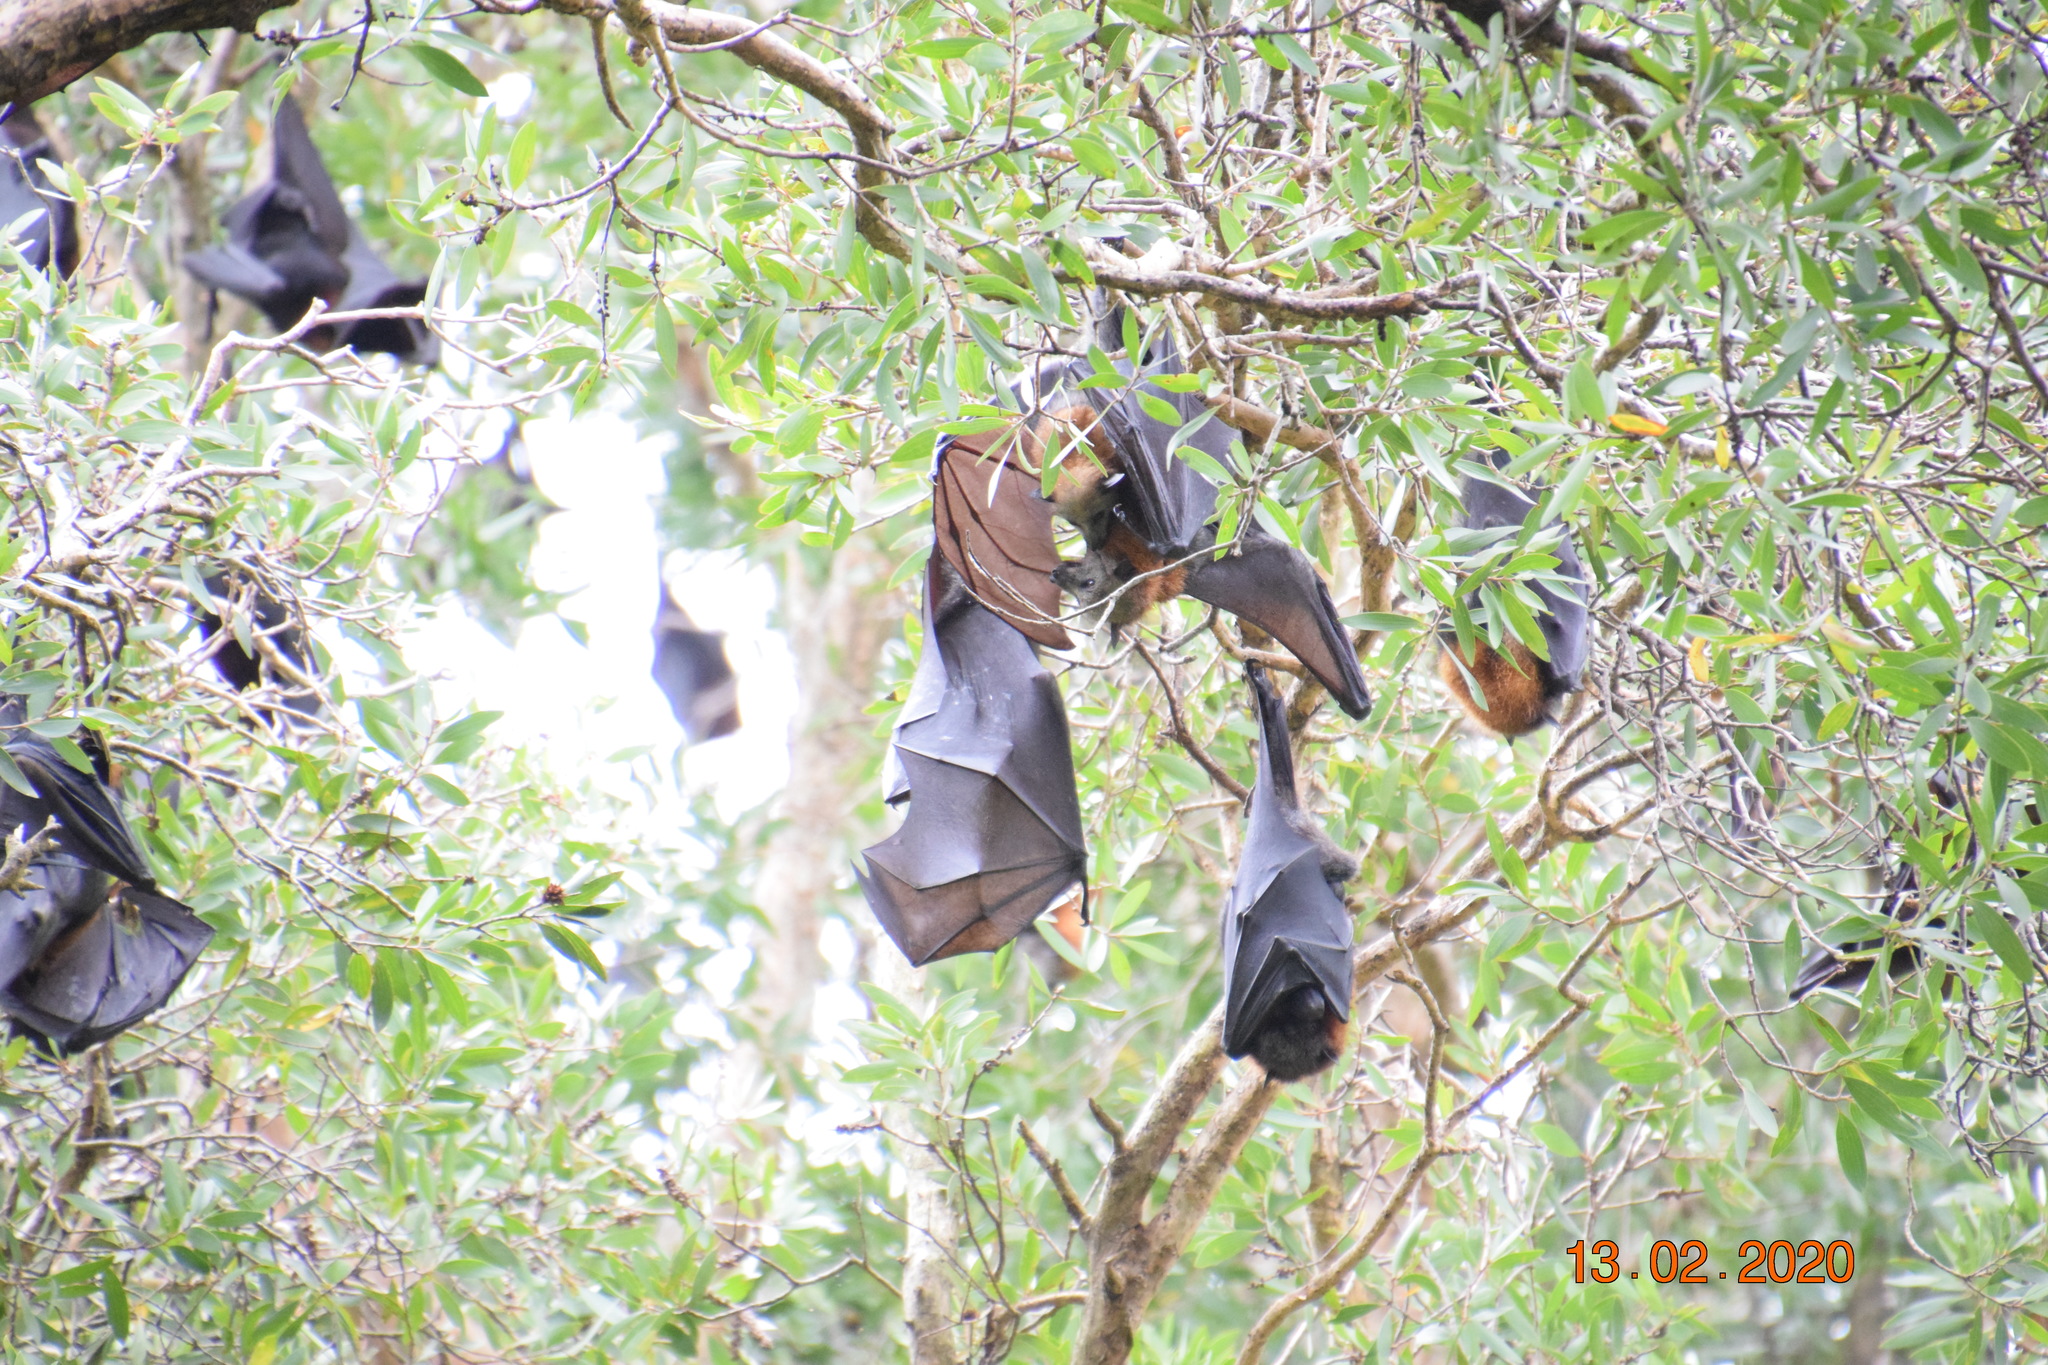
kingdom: Animalia
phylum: Chordata
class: Mammalia
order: Chiroptera
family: Pteropodidae
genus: Pteropus
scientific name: Pteropus poliocephalus
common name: Gray-headed flying fox
